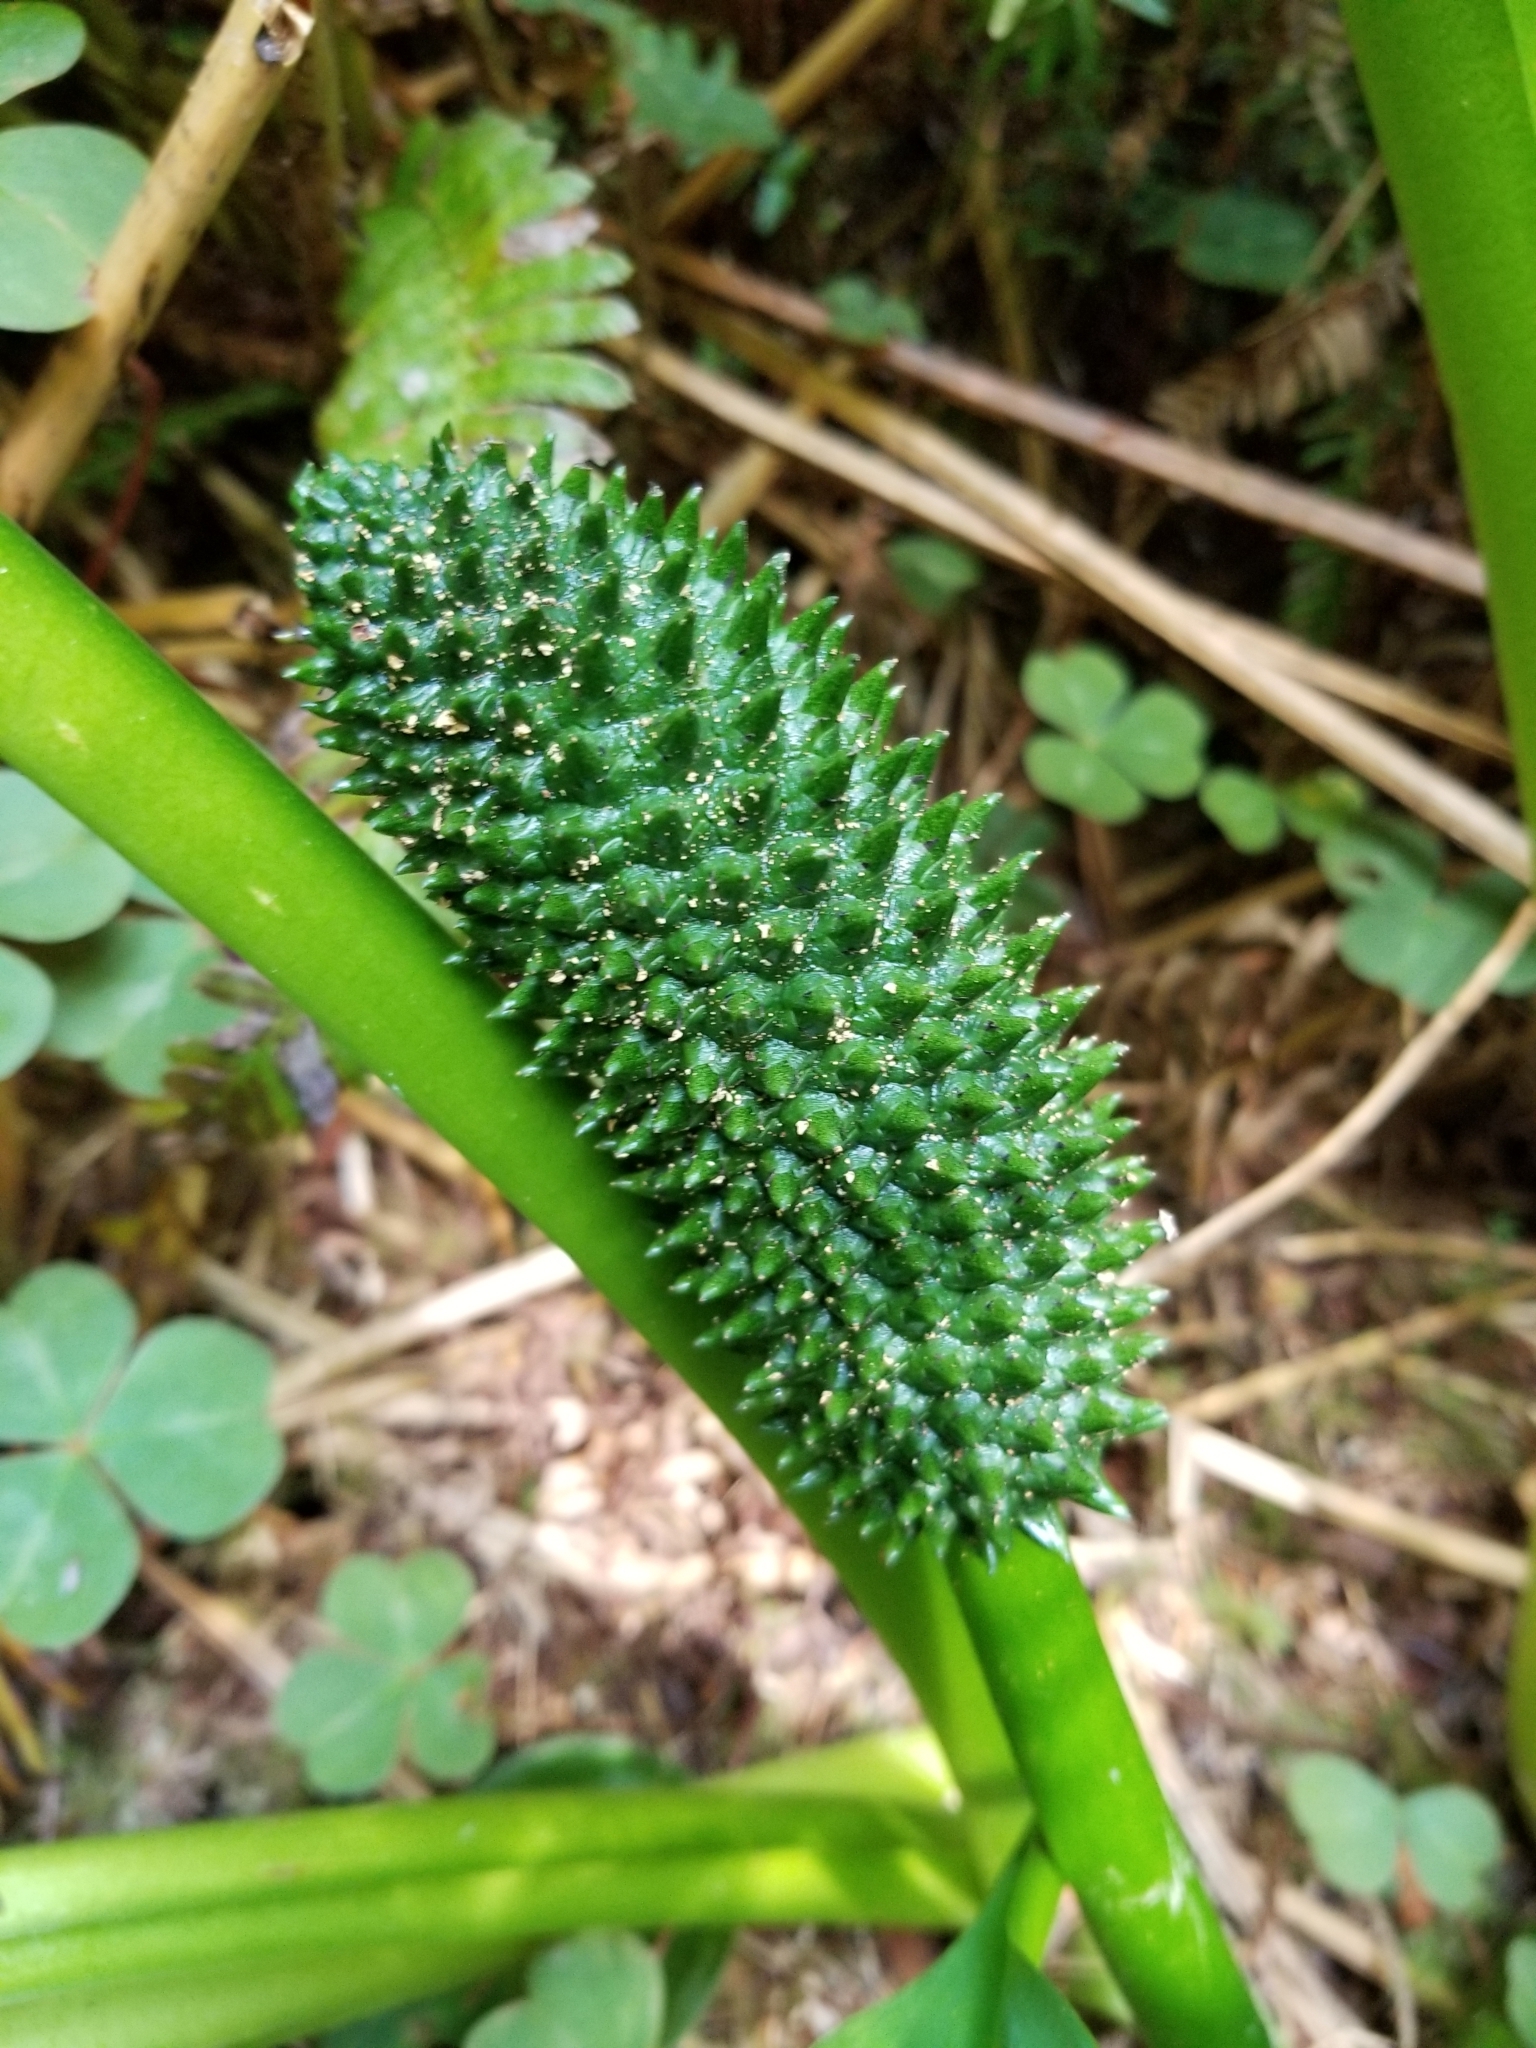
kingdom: Plantae
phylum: Tracheophyta
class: Liliopsida
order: Alismatales
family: Araceae
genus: Lysichiton
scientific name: Lysichiton americanus
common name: American skunk cabbage
